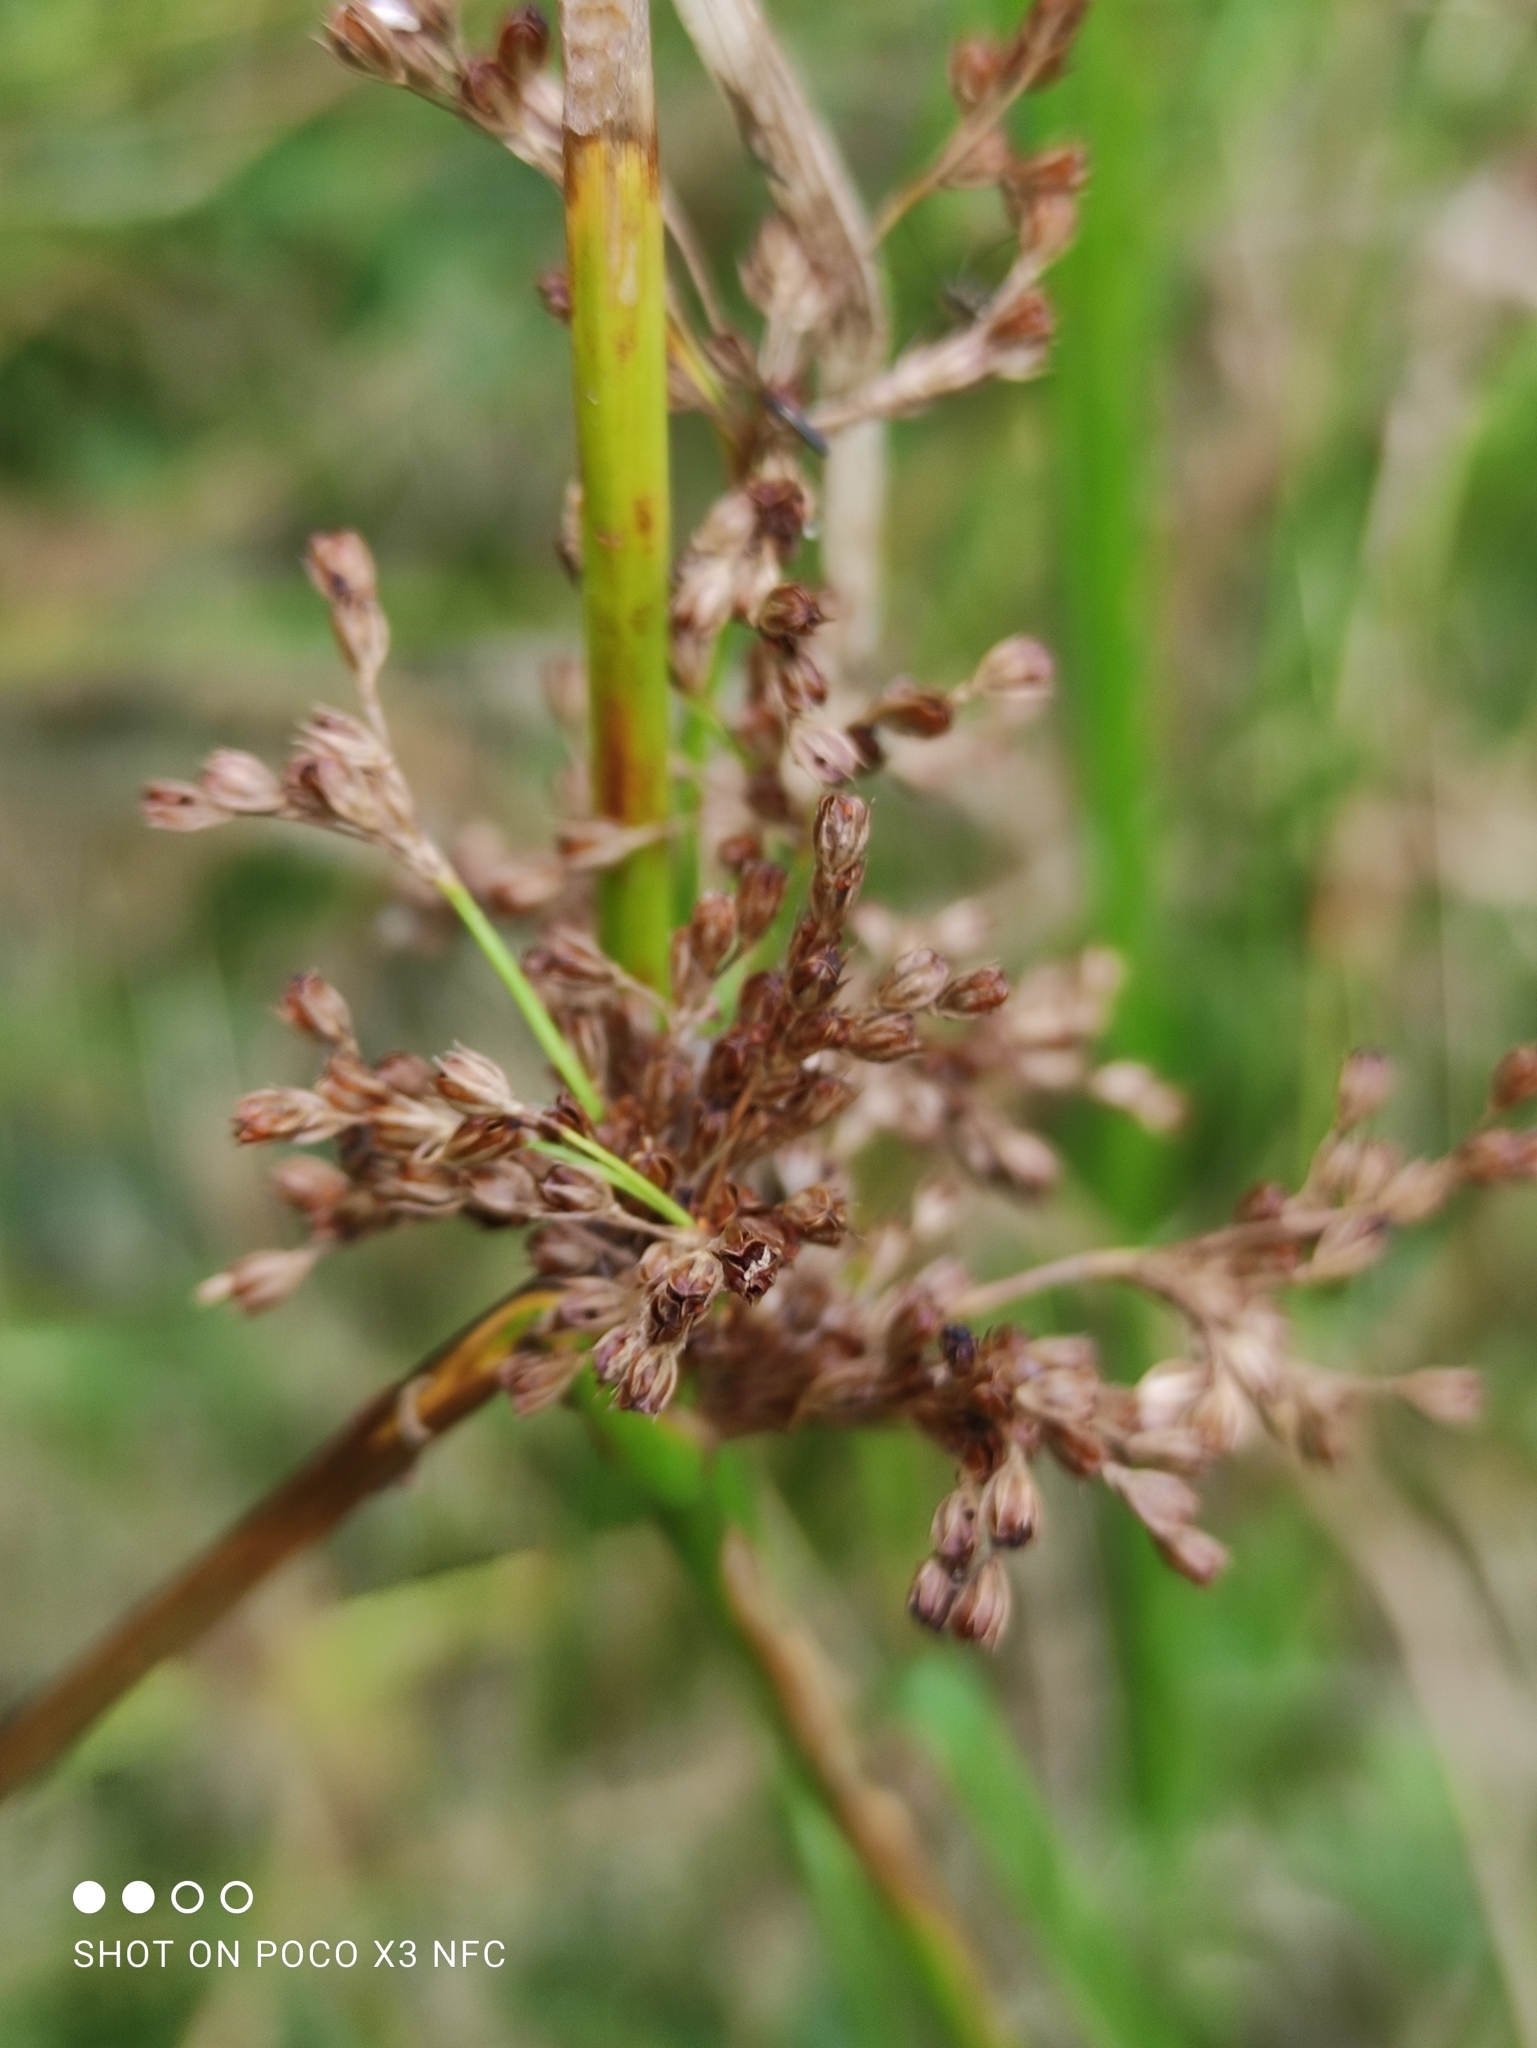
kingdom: Plantae
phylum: Tracheophyta
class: Liliopsida
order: Poales
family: Juncaceae
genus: Juncus
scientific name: Juncus effusus
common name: Soft rush
